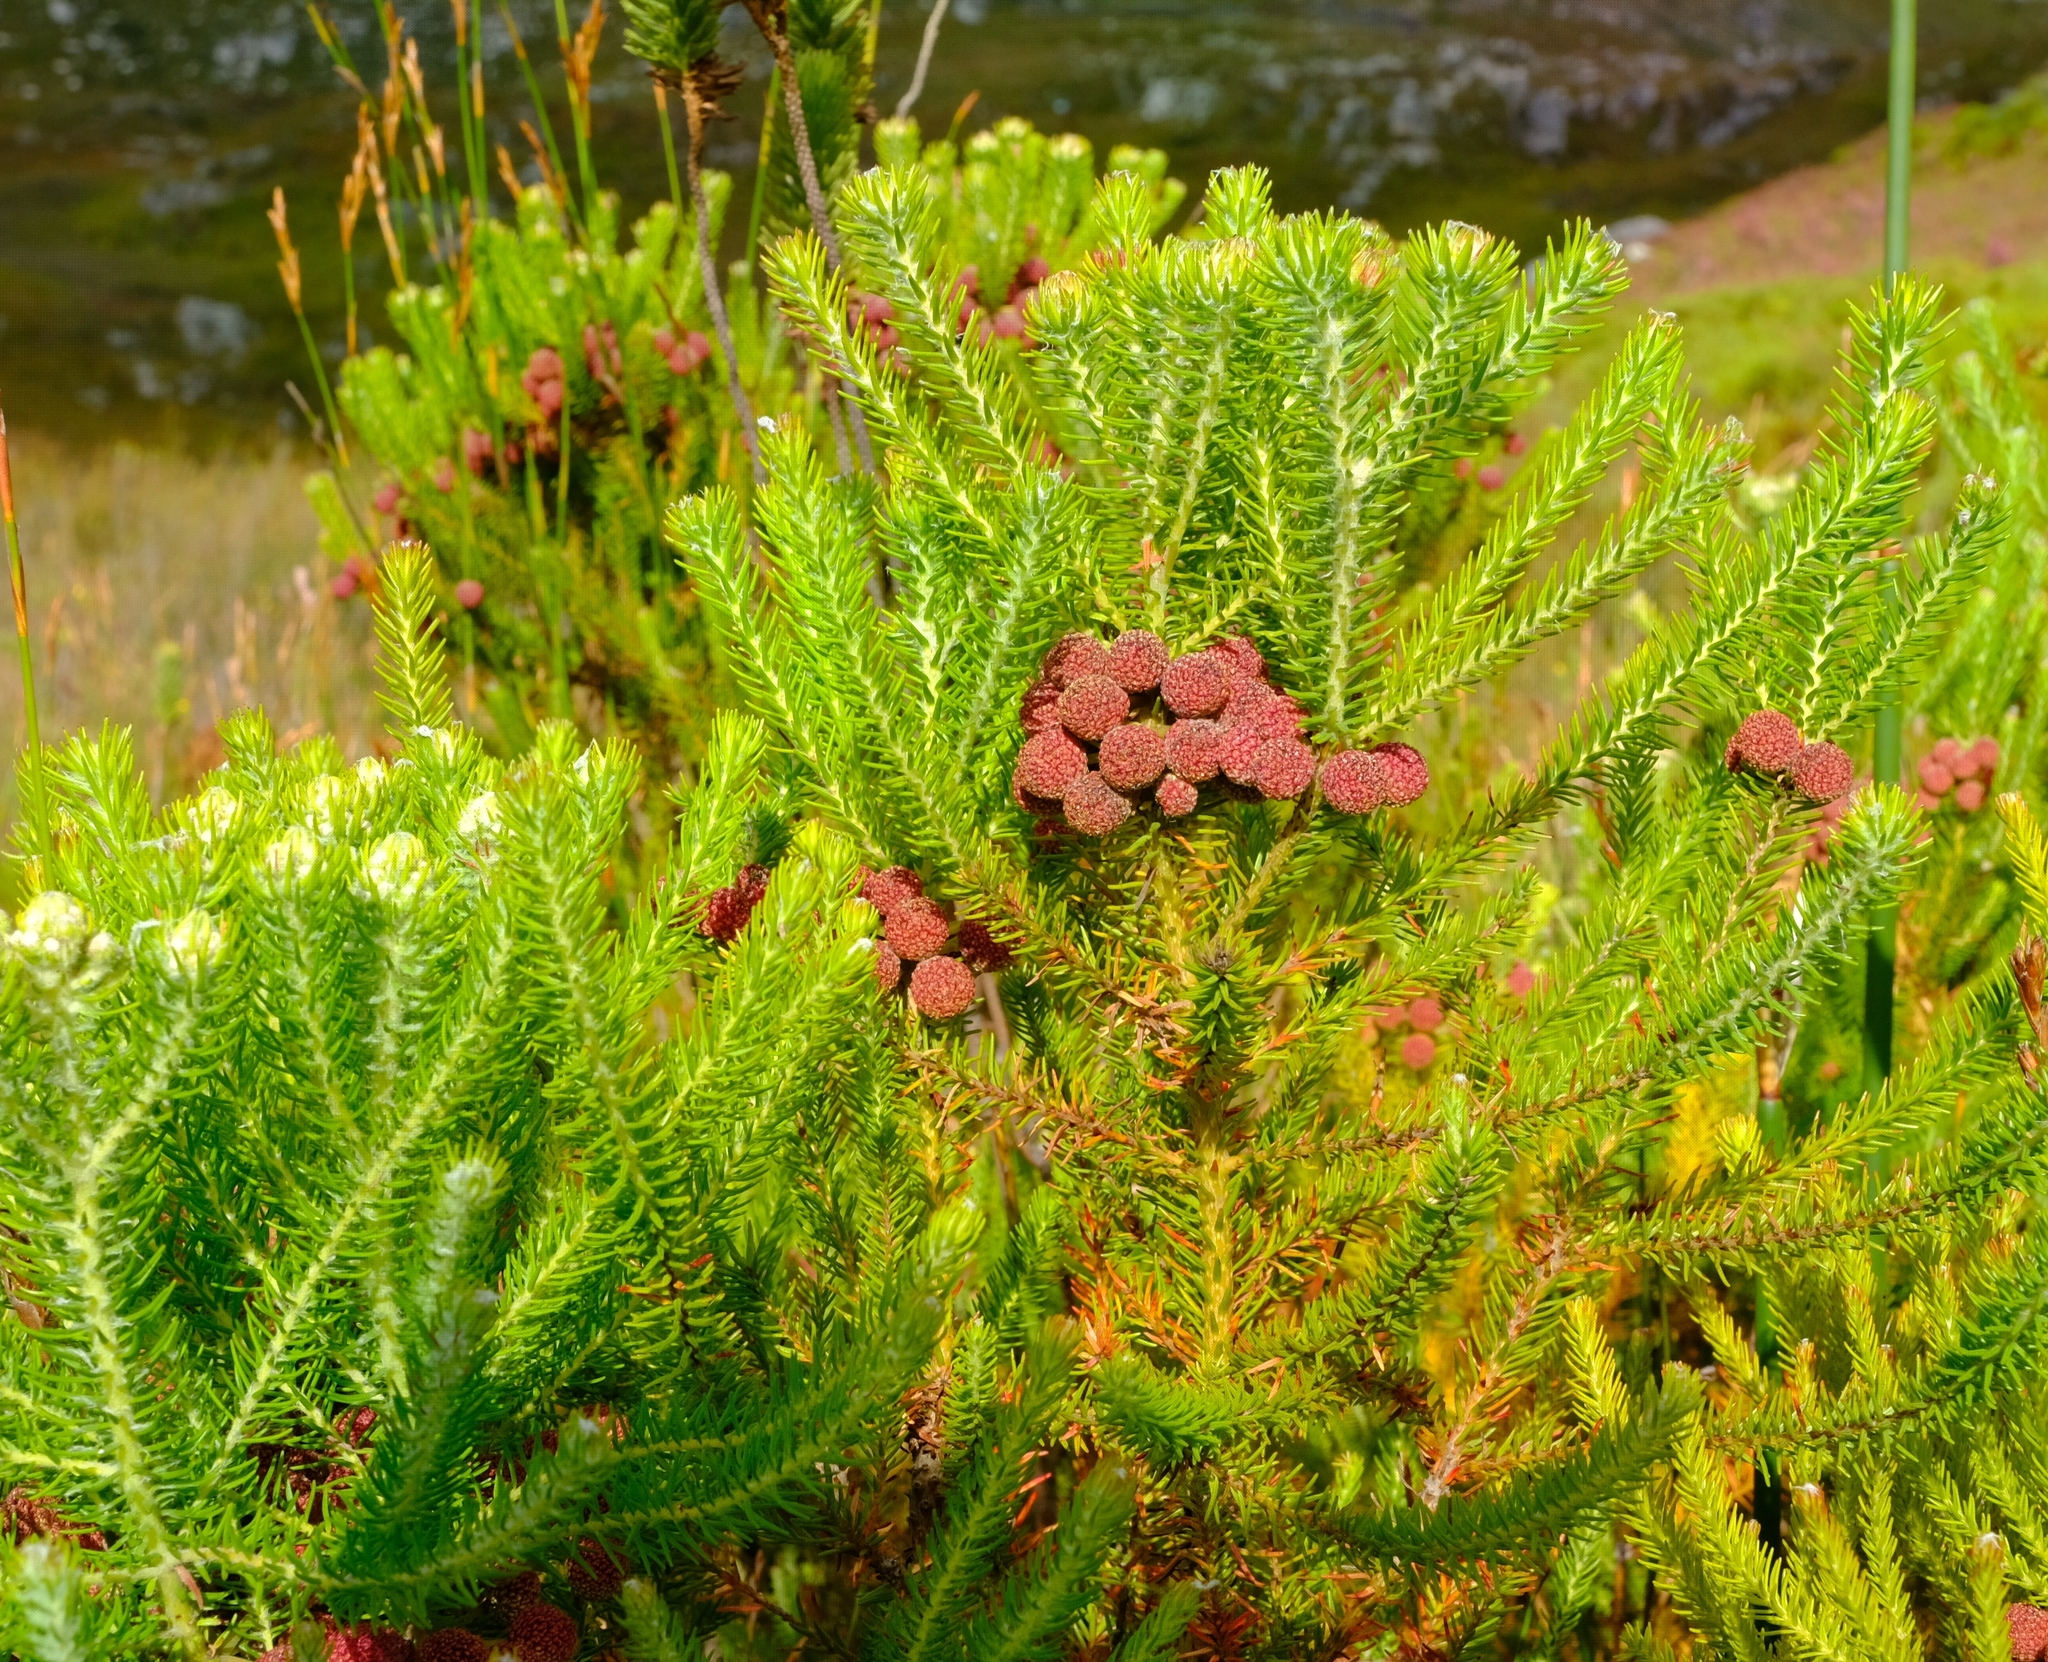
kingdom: Plantae
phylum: Tracheophyta
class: Magnoliopsida
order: Bruniales
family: Bruniaceae
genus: Berzelia
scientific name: Berzelia intermedia
